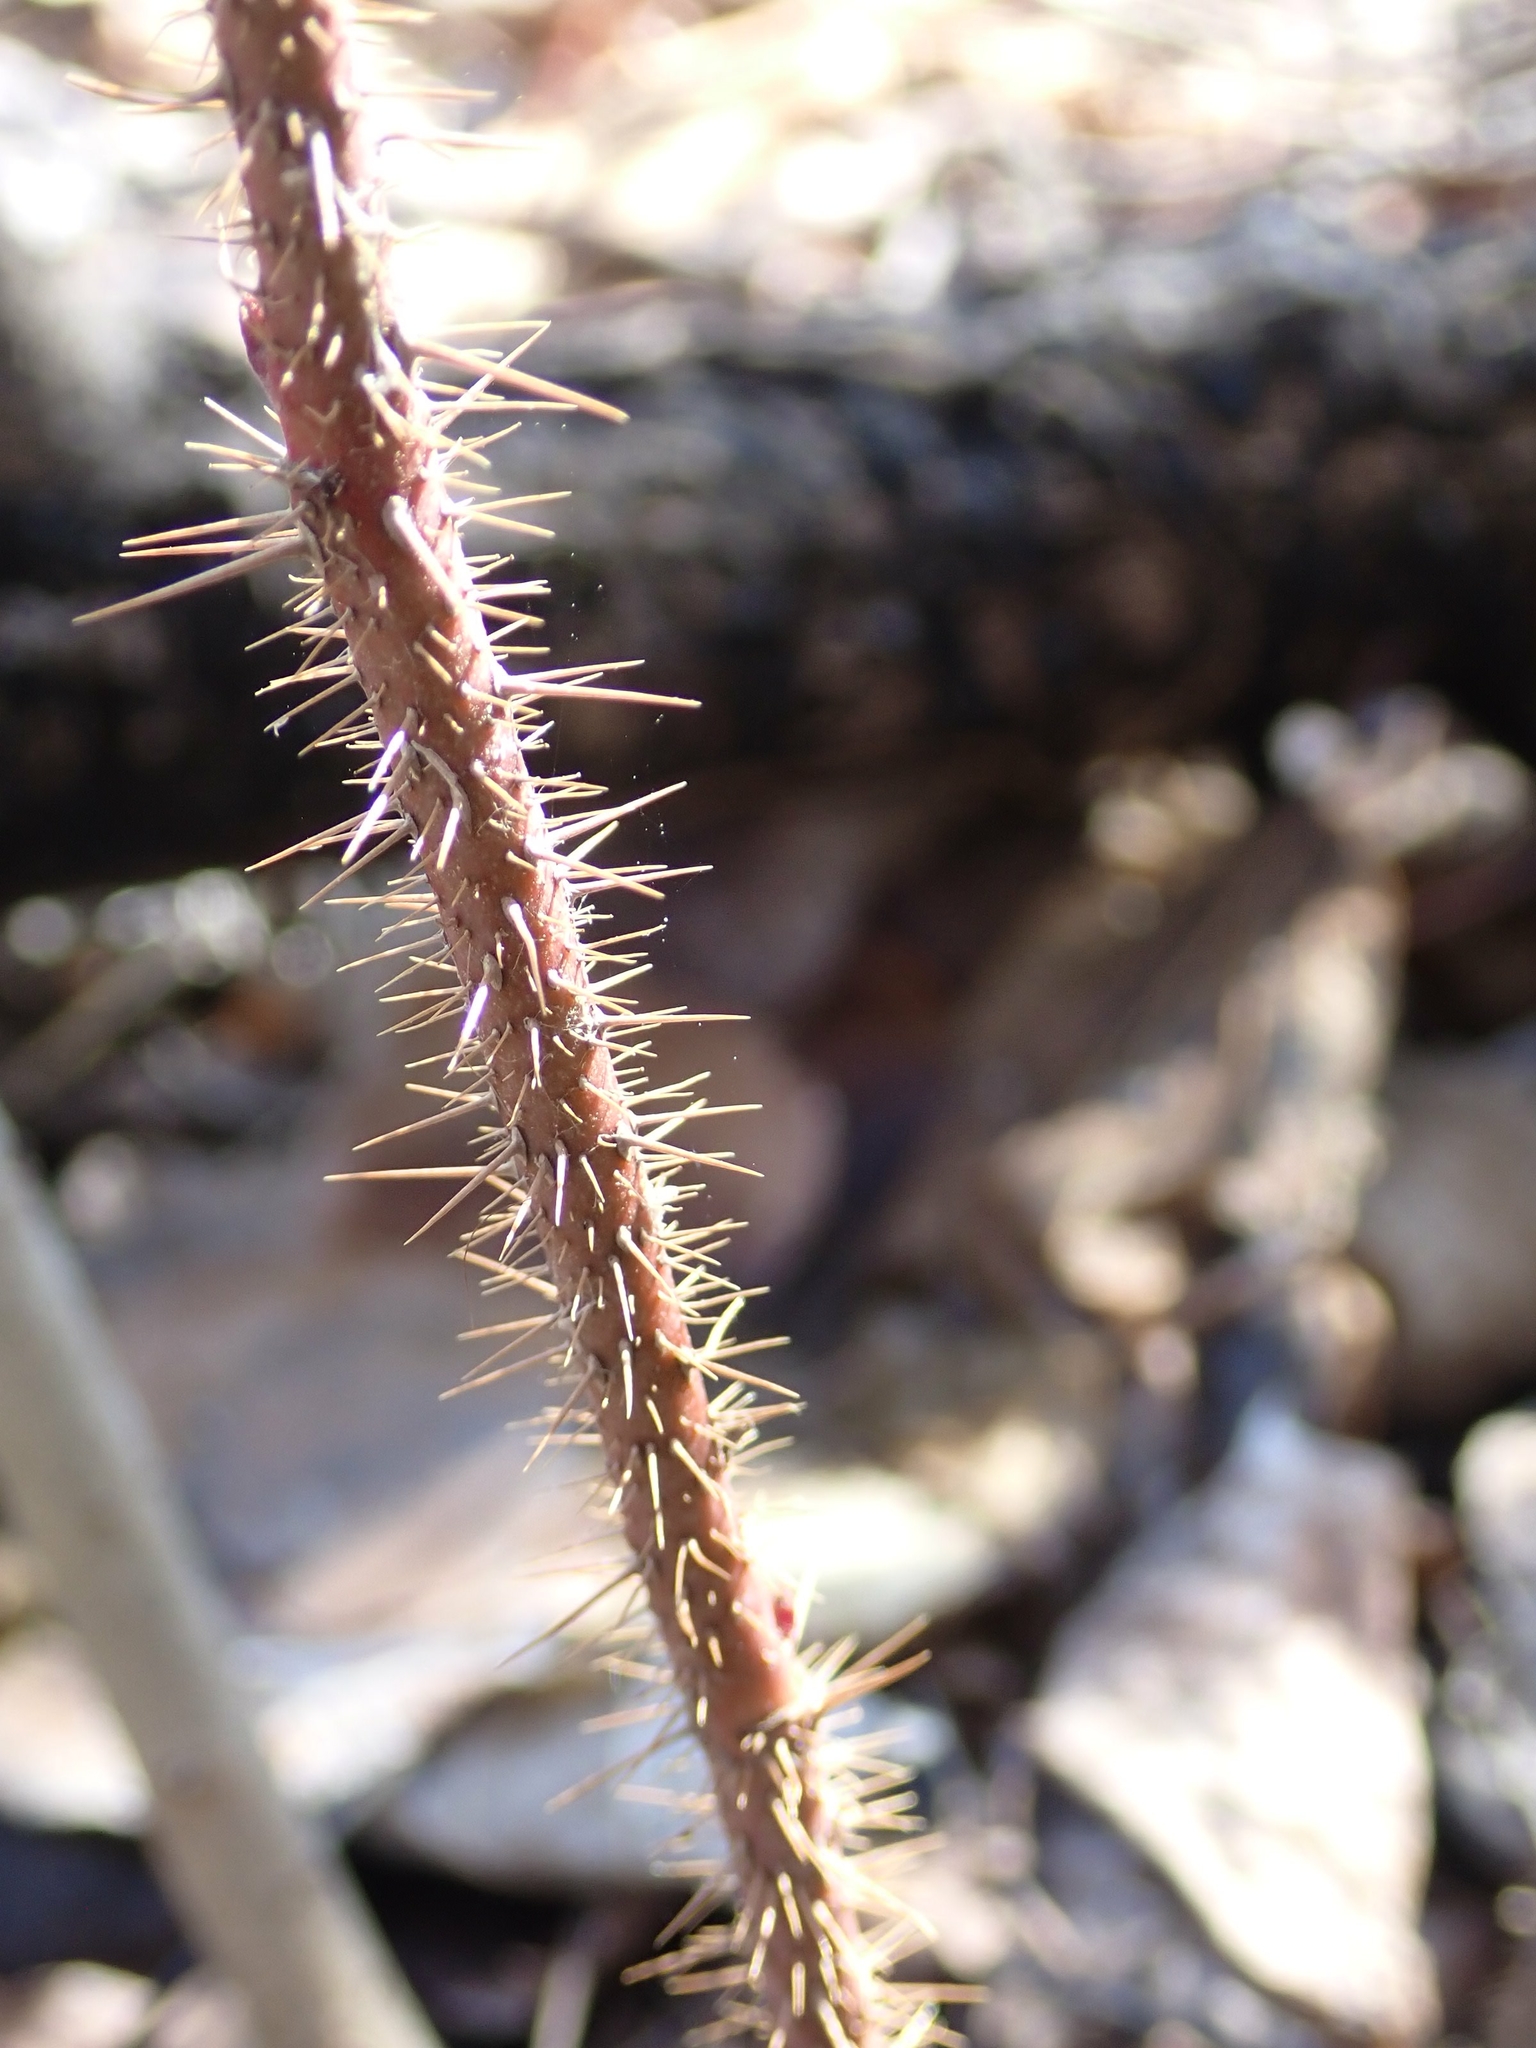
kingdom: Plantae
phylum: Tracheophyta
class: Magnoliopsida
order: Rosales
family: Rosaceae
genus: Rosa
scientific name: Rosa acicularis
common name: Prickly rose
